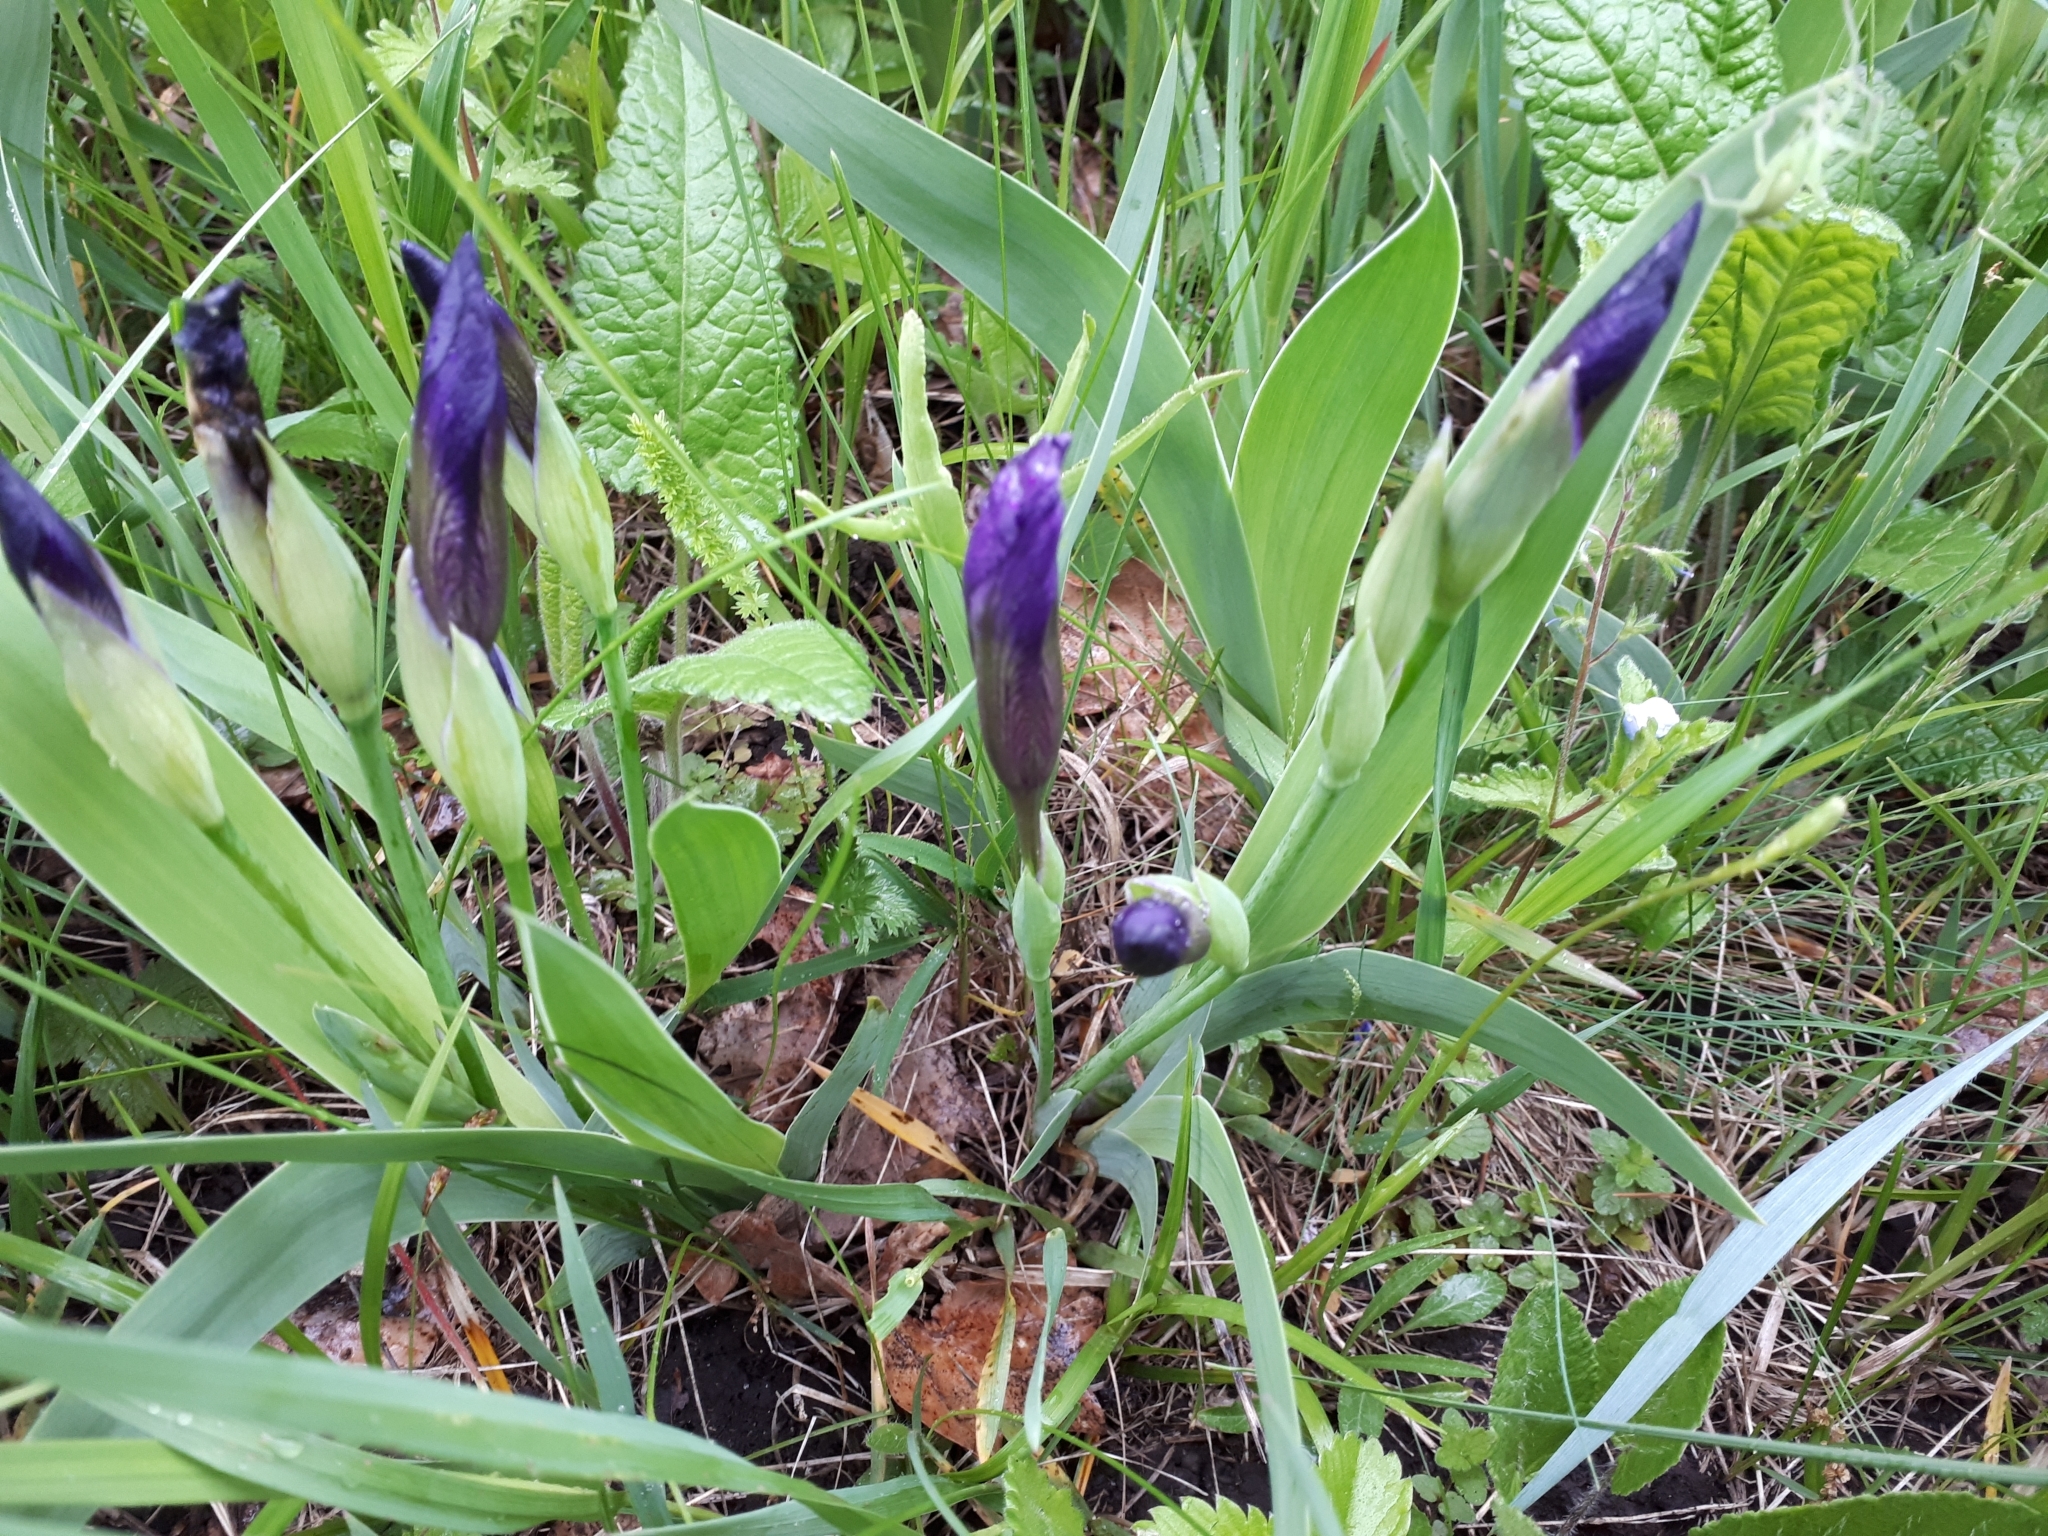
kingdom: Plantae
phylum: Tracheophyta
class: Liliopsida
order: Asparagales
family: Iridaceae
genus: Iris
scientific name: Iris aphylla
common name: Stool iris
